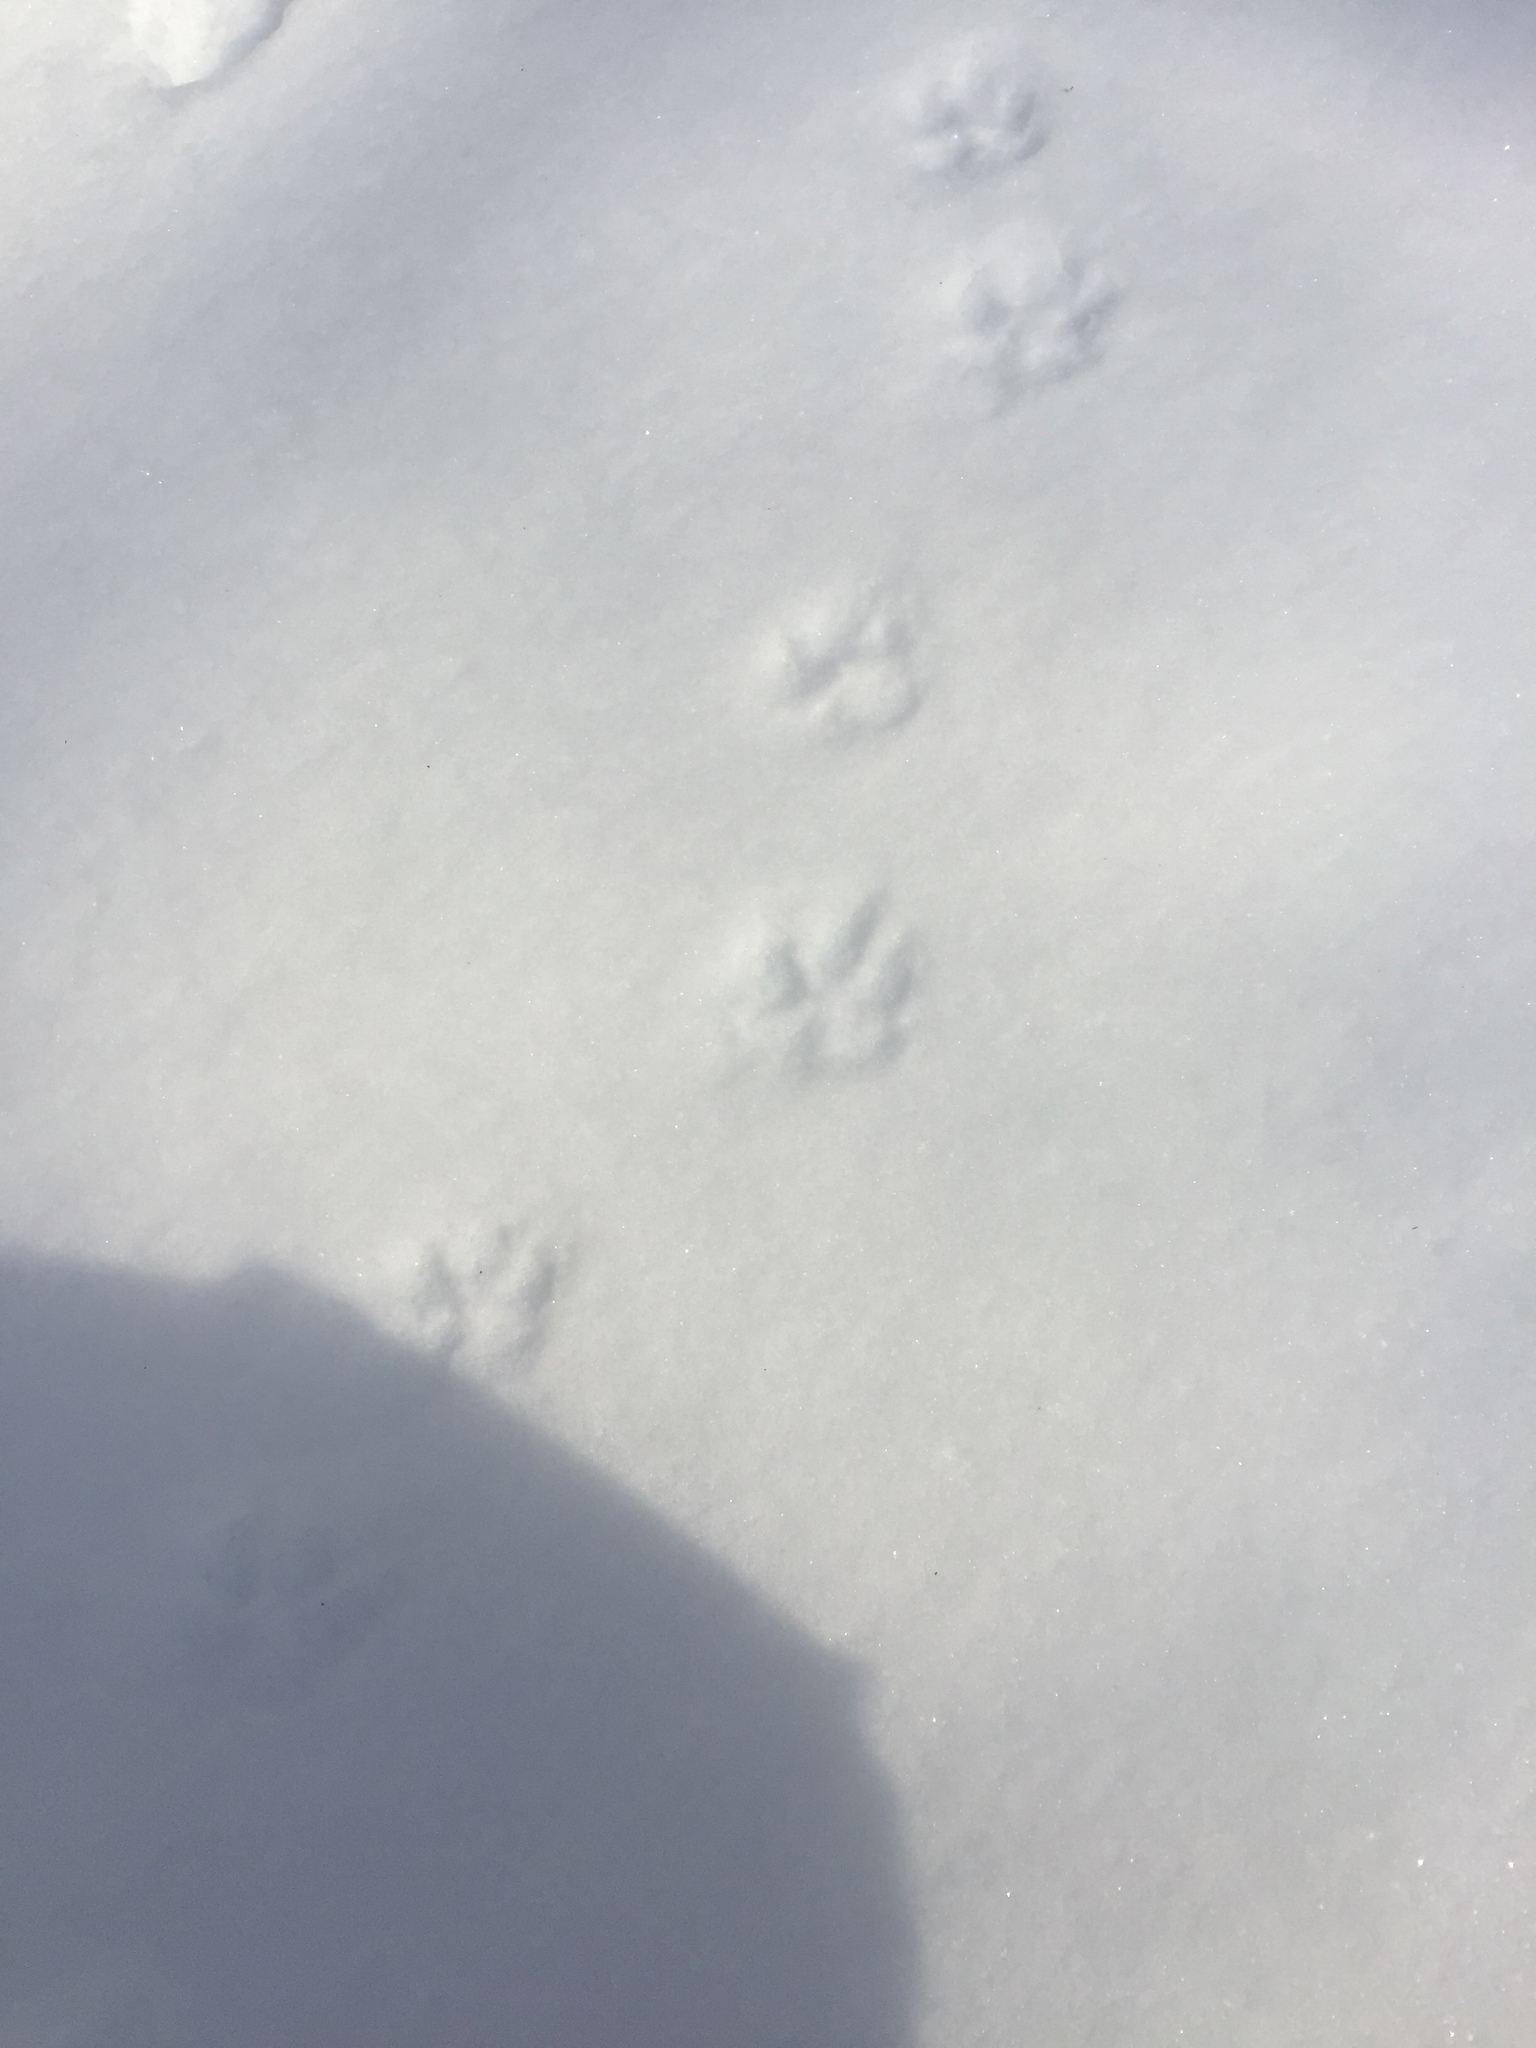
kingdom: Animalia
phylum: Chordata
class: Mammalia
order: Carnivora
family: Canidae
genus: Vulpes
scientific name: Vulpes vulpes
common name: Red fox
